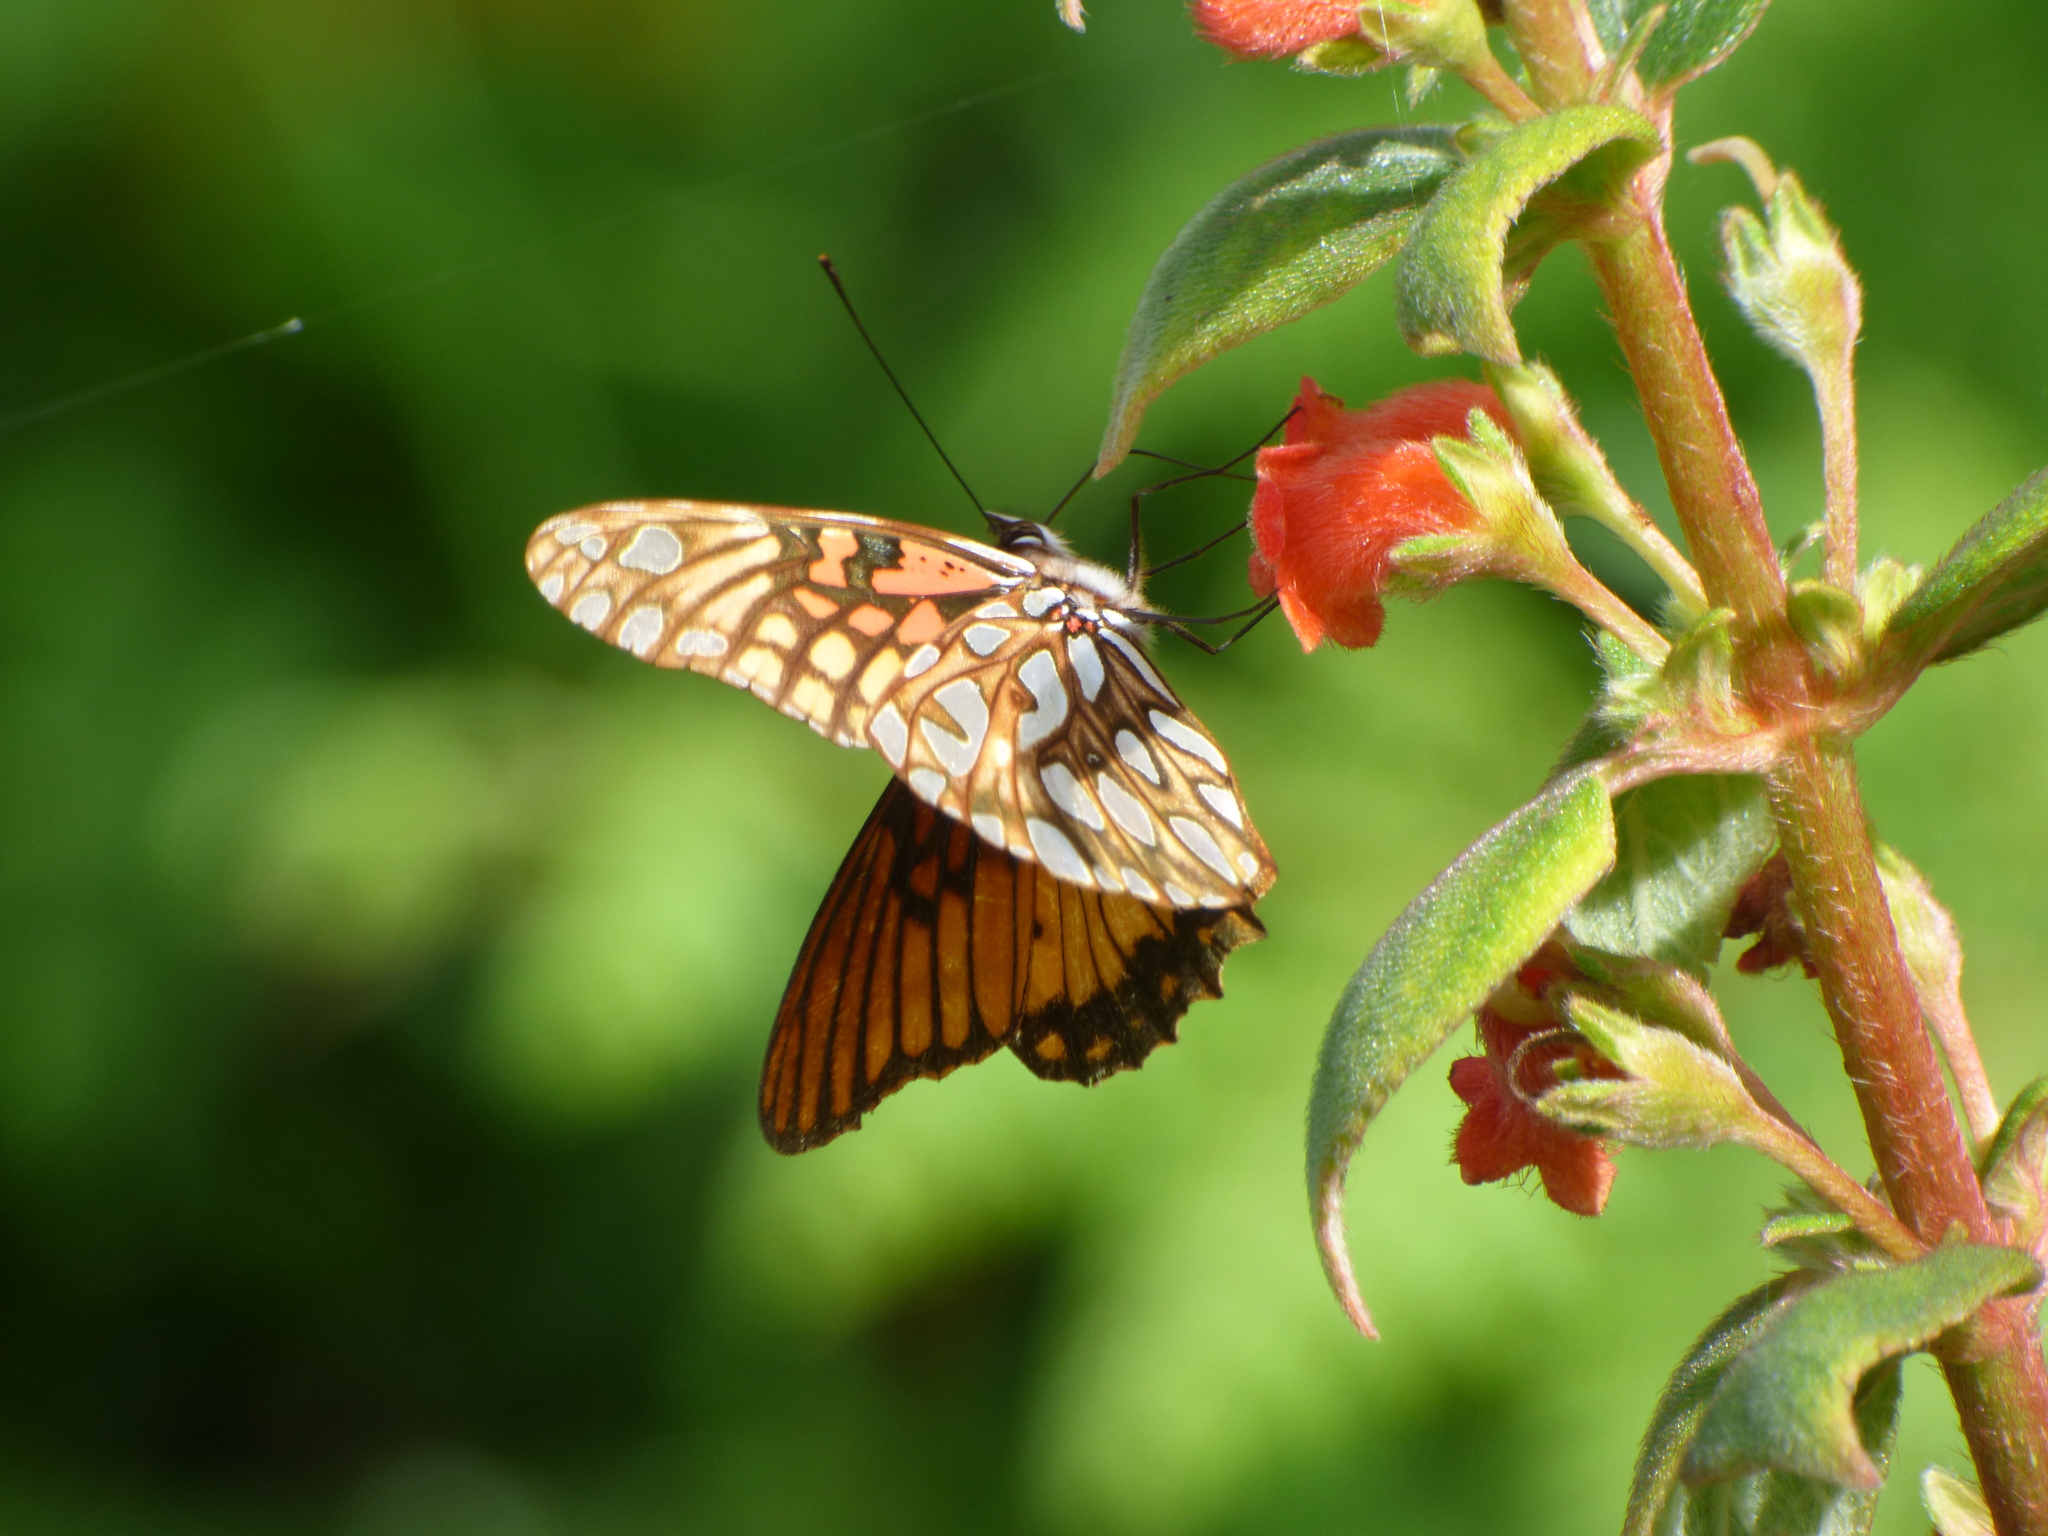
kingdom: Animalia
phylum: Arthropoda
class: Insecta
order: Lepidoptera
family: Nymphalidae
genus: Dione
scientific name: Dione moneta
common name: Mexican silverspot
